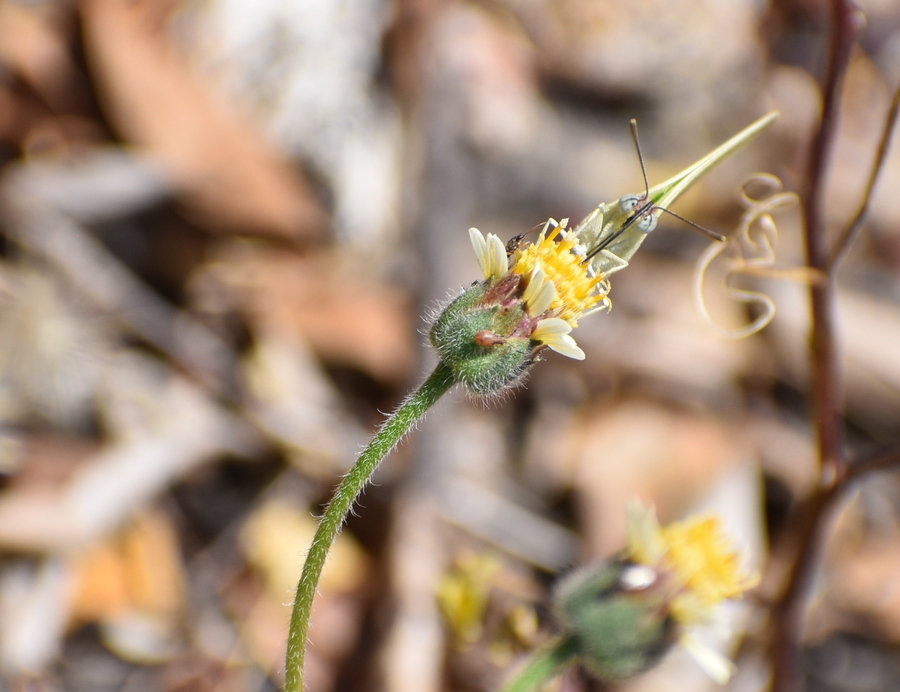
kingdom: Animalia
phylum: Arthropoda
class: Insecta
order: Lepidoptera
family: Pieridae
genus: Catopsilia
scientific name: Catopsilia pomona
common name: Common emigrant
